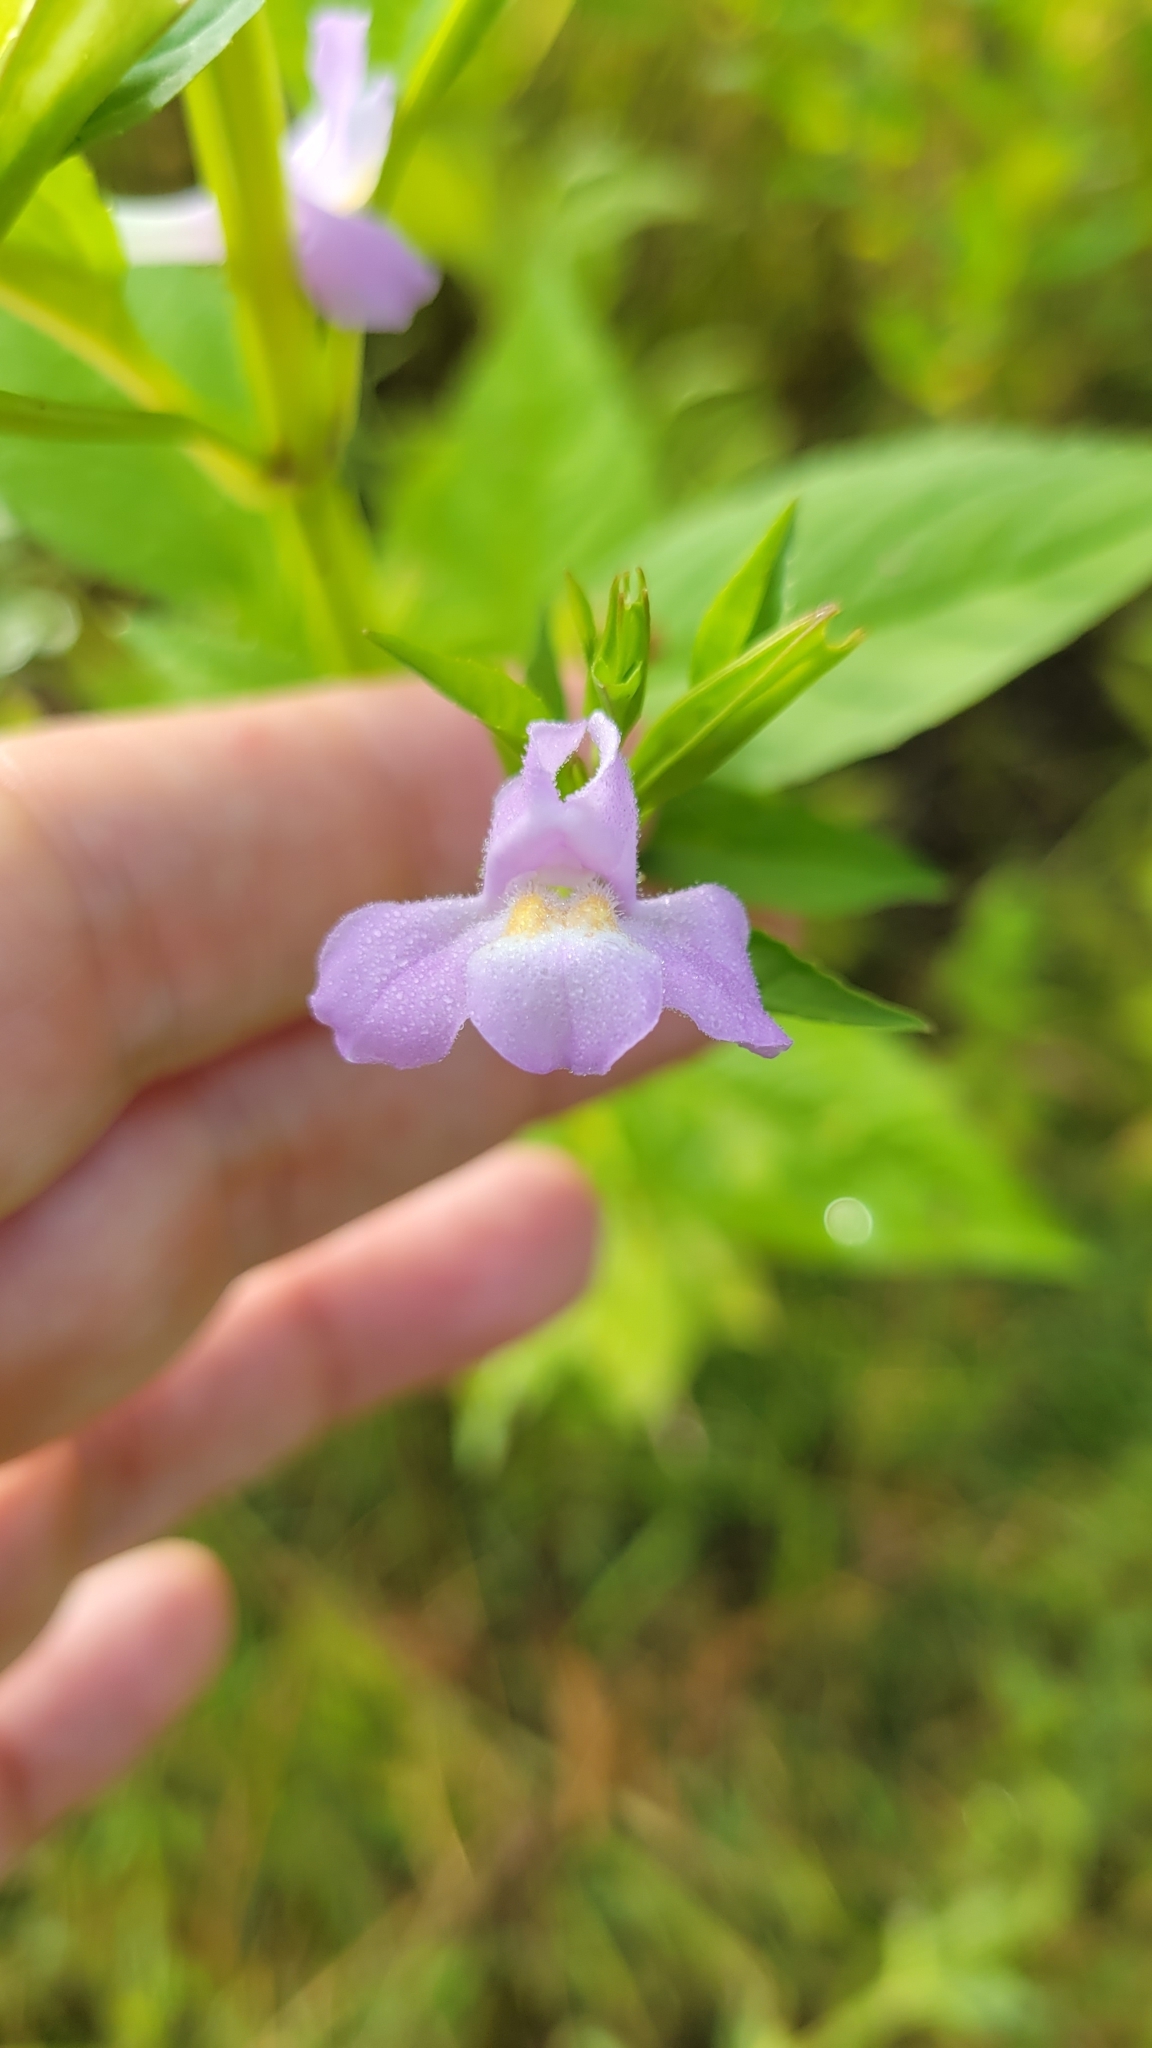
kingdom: Plantae
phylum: Tracheophyta
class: Magnoliopsida
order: Lamiales
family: Phrymaceae
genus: Mimulus
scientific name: Mimulus alatus
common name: Sharp-wing monkey-flower
